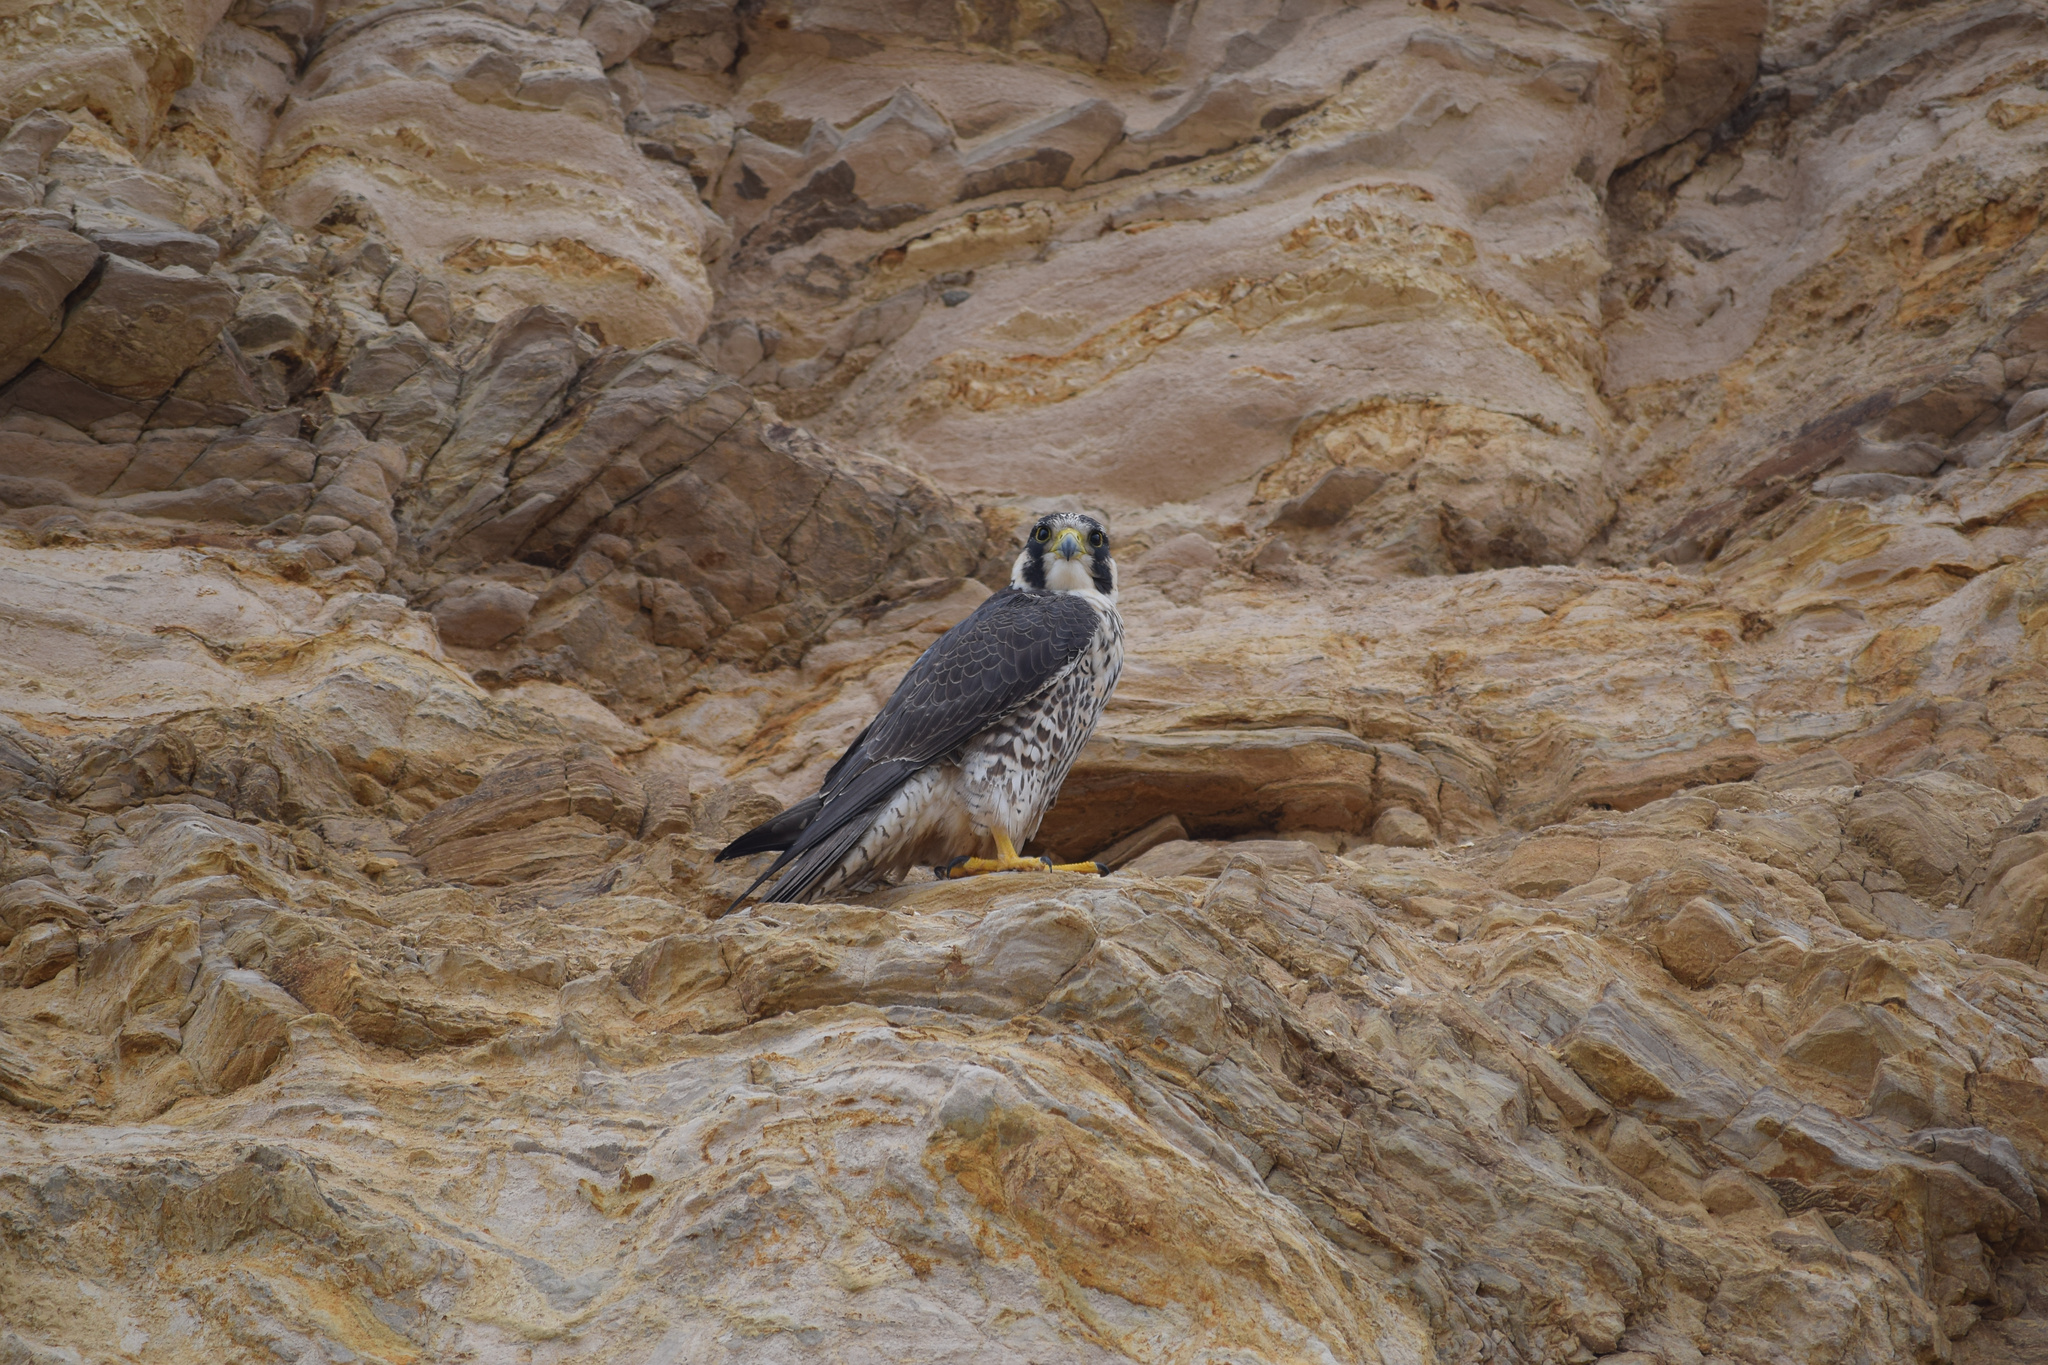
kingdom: Animalia
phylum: Chordata
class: Aves
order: Falconiformes
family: Falconidae
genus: Falco
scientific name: Falco peregrinus
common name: Peregrine falcon
